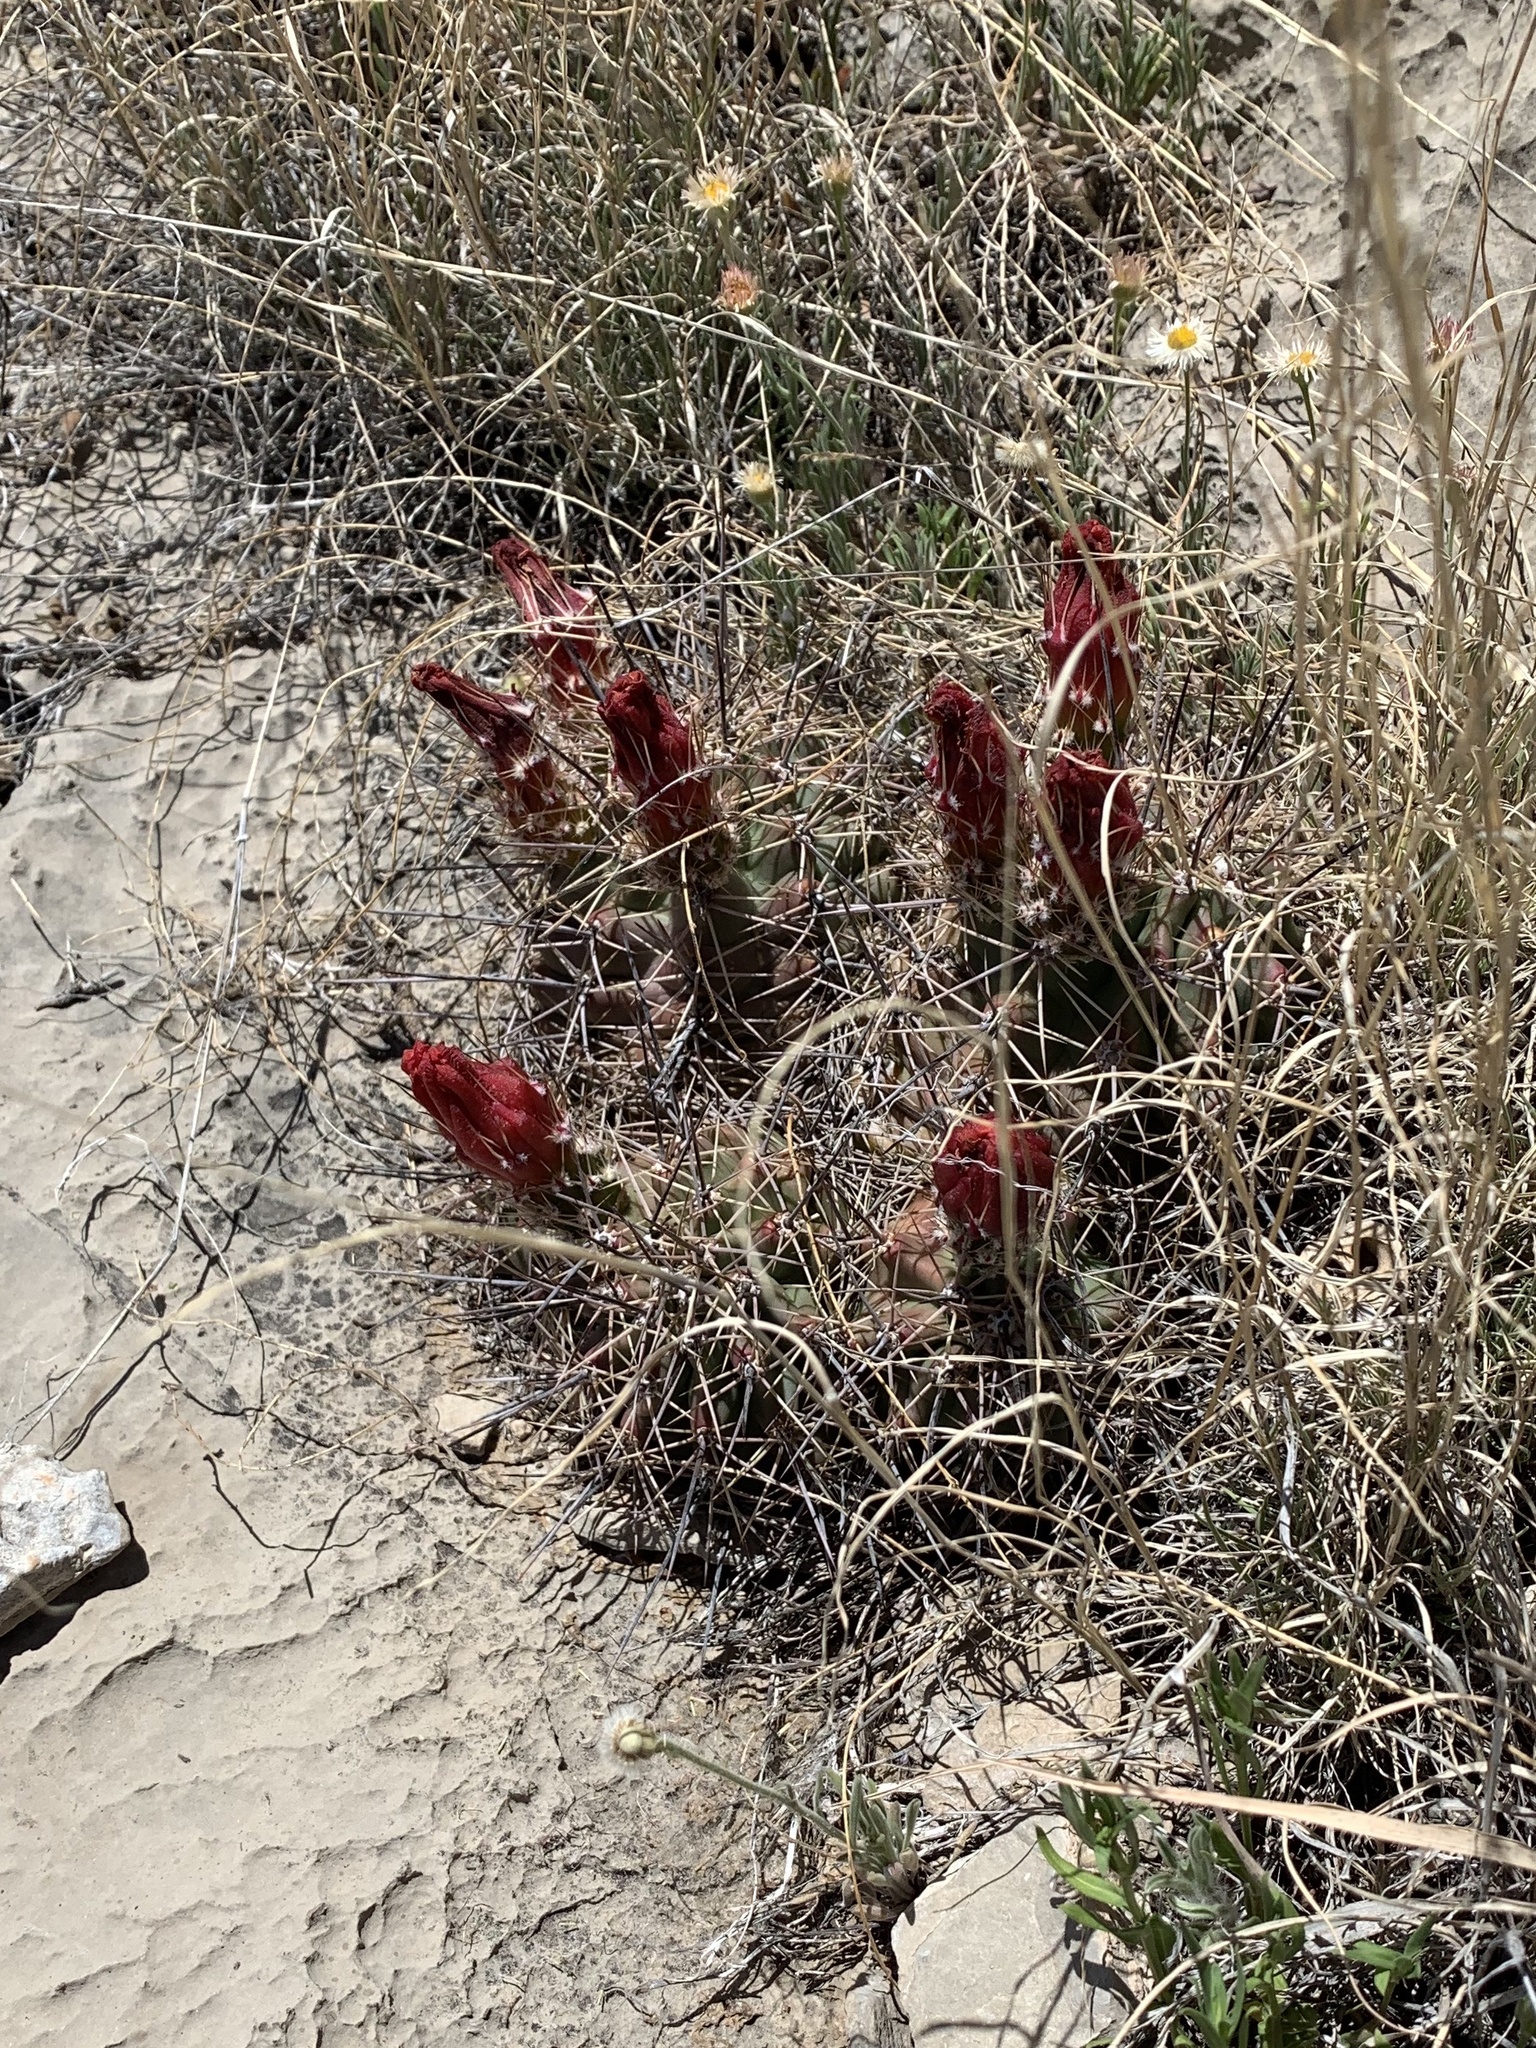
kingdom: Plantae
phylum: Tracheophyta
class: Magnoliopsida
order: Caryophyllales
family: Cactaceae
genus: Echinocereus
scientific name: Echinocereus coccineus
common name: Scarlet hedgehog cactus
